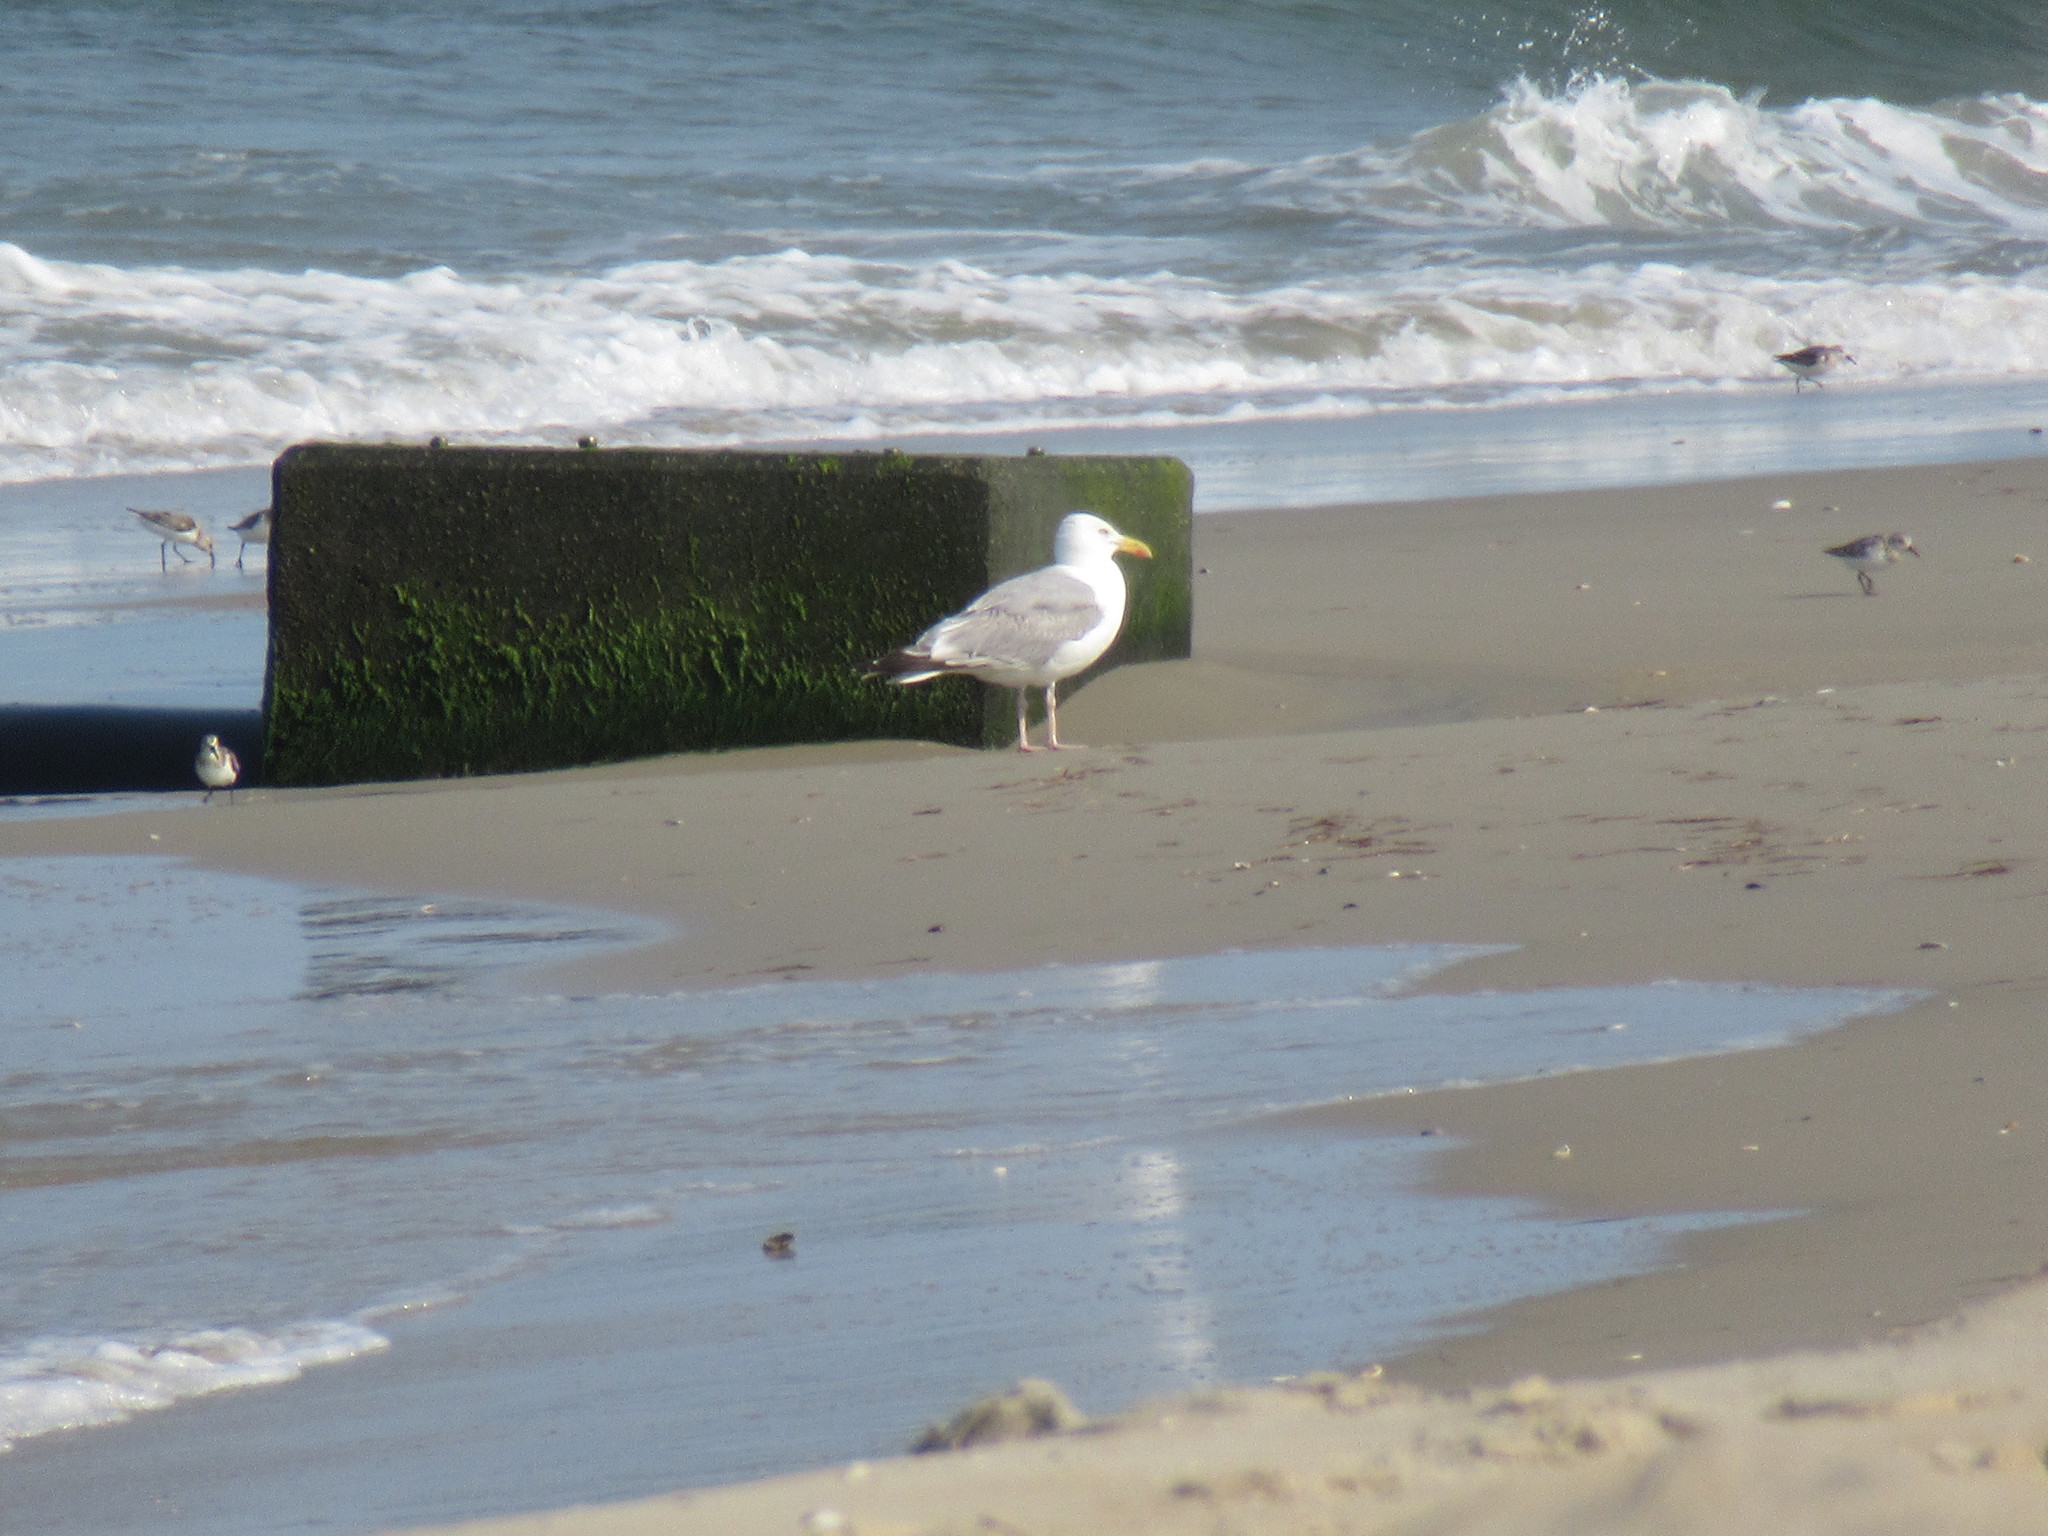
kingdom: Animalia
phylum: Chordata
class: Aves
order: Charadriiformes
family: Laridae
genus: Larus
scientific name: Larus argentatus
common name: Herring gull
